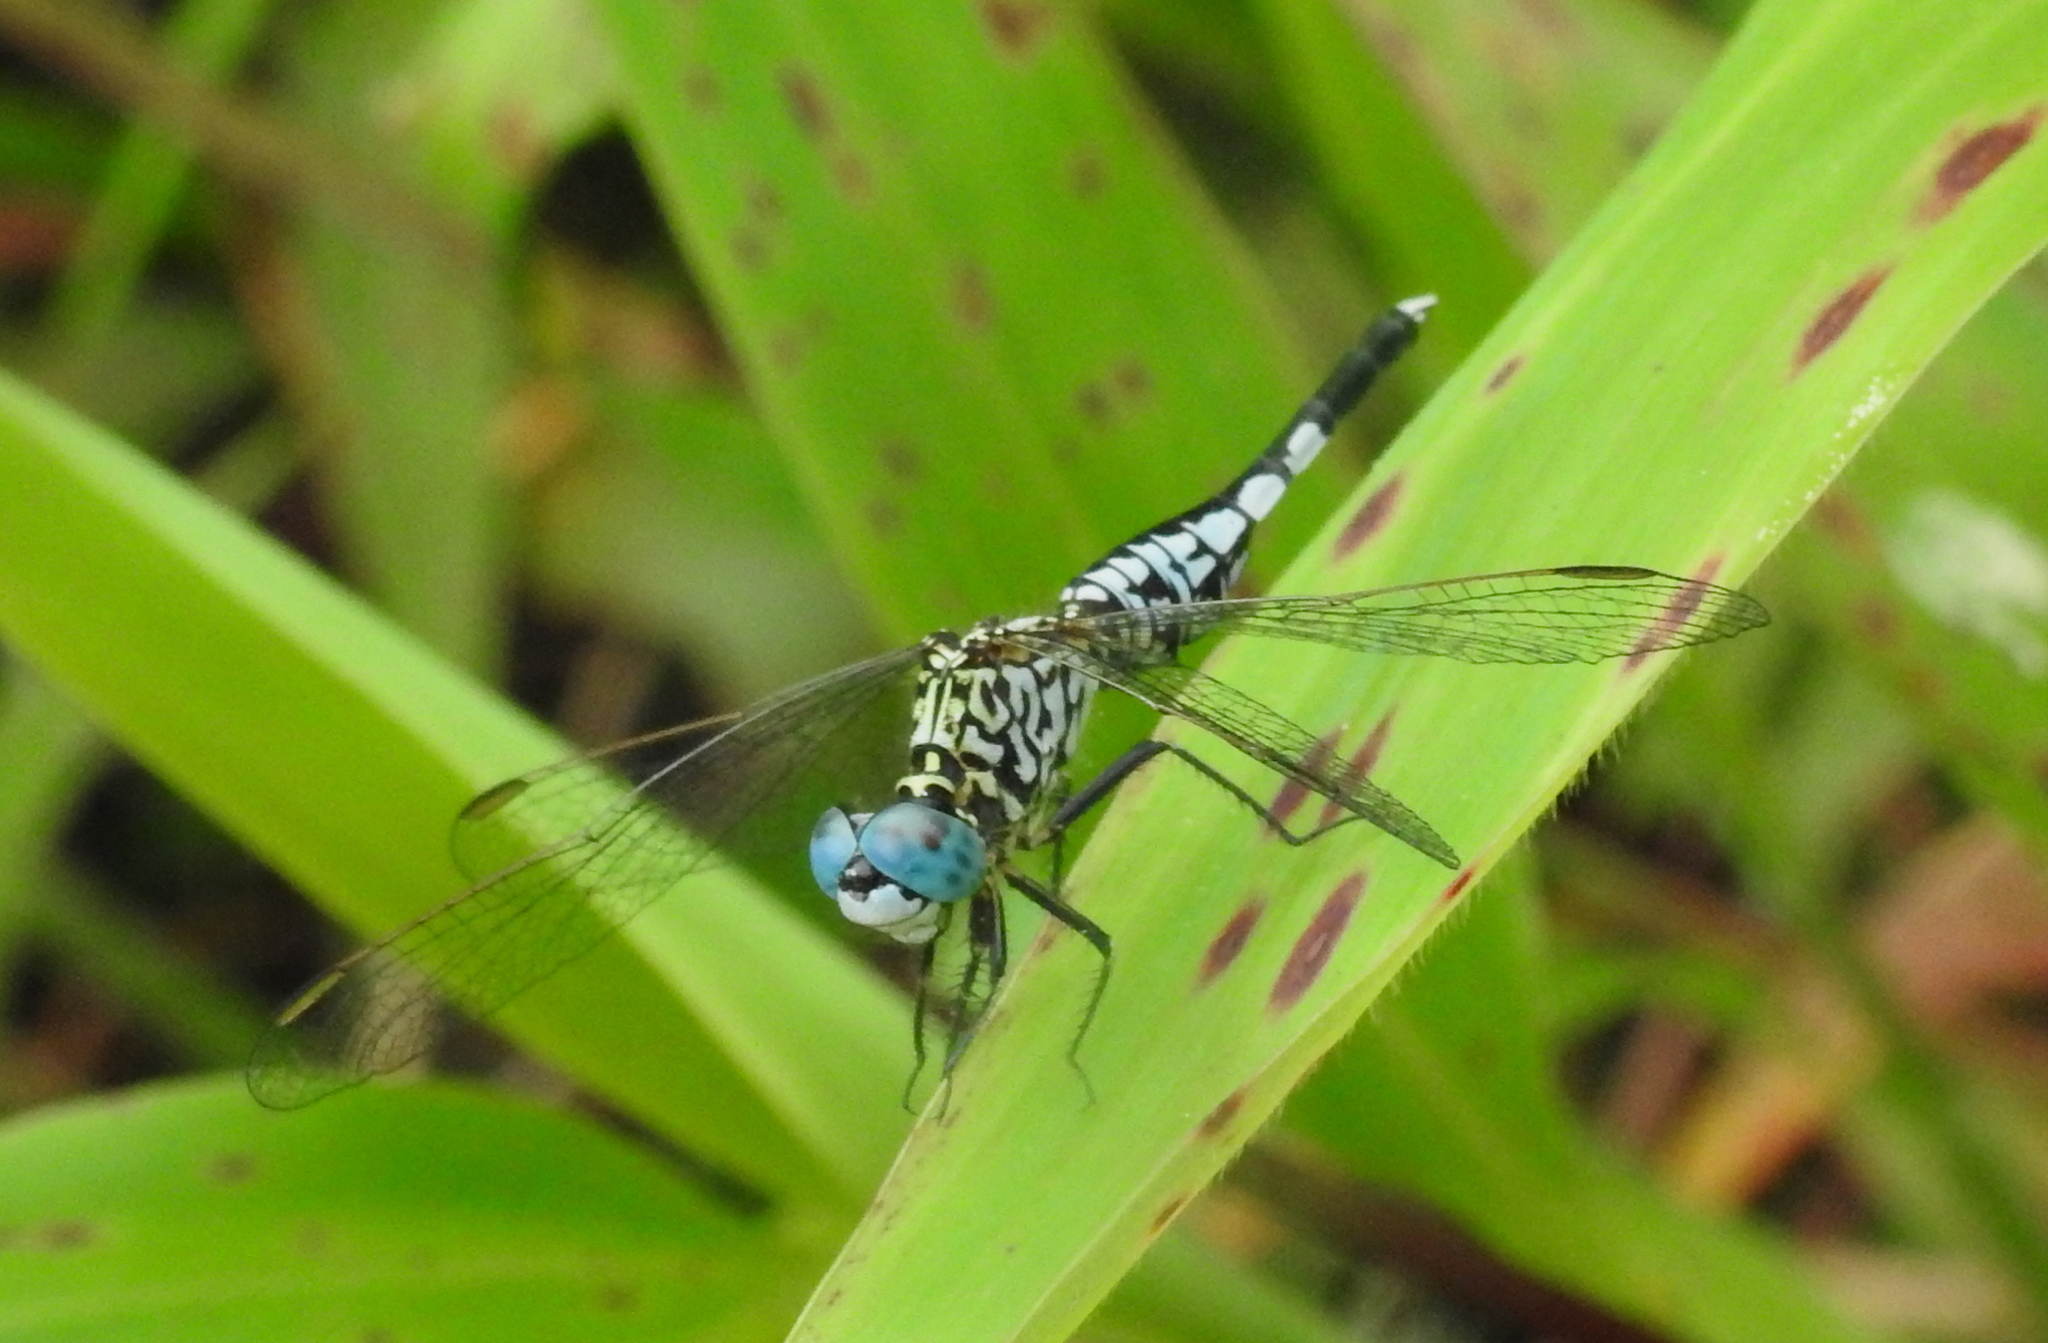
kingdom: Animalia
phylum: Arthropoda
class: Insecta
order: Odonata
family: Libellulidae
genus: Acisoma
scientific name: Acisoma panorpoides
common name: Asian pintail
